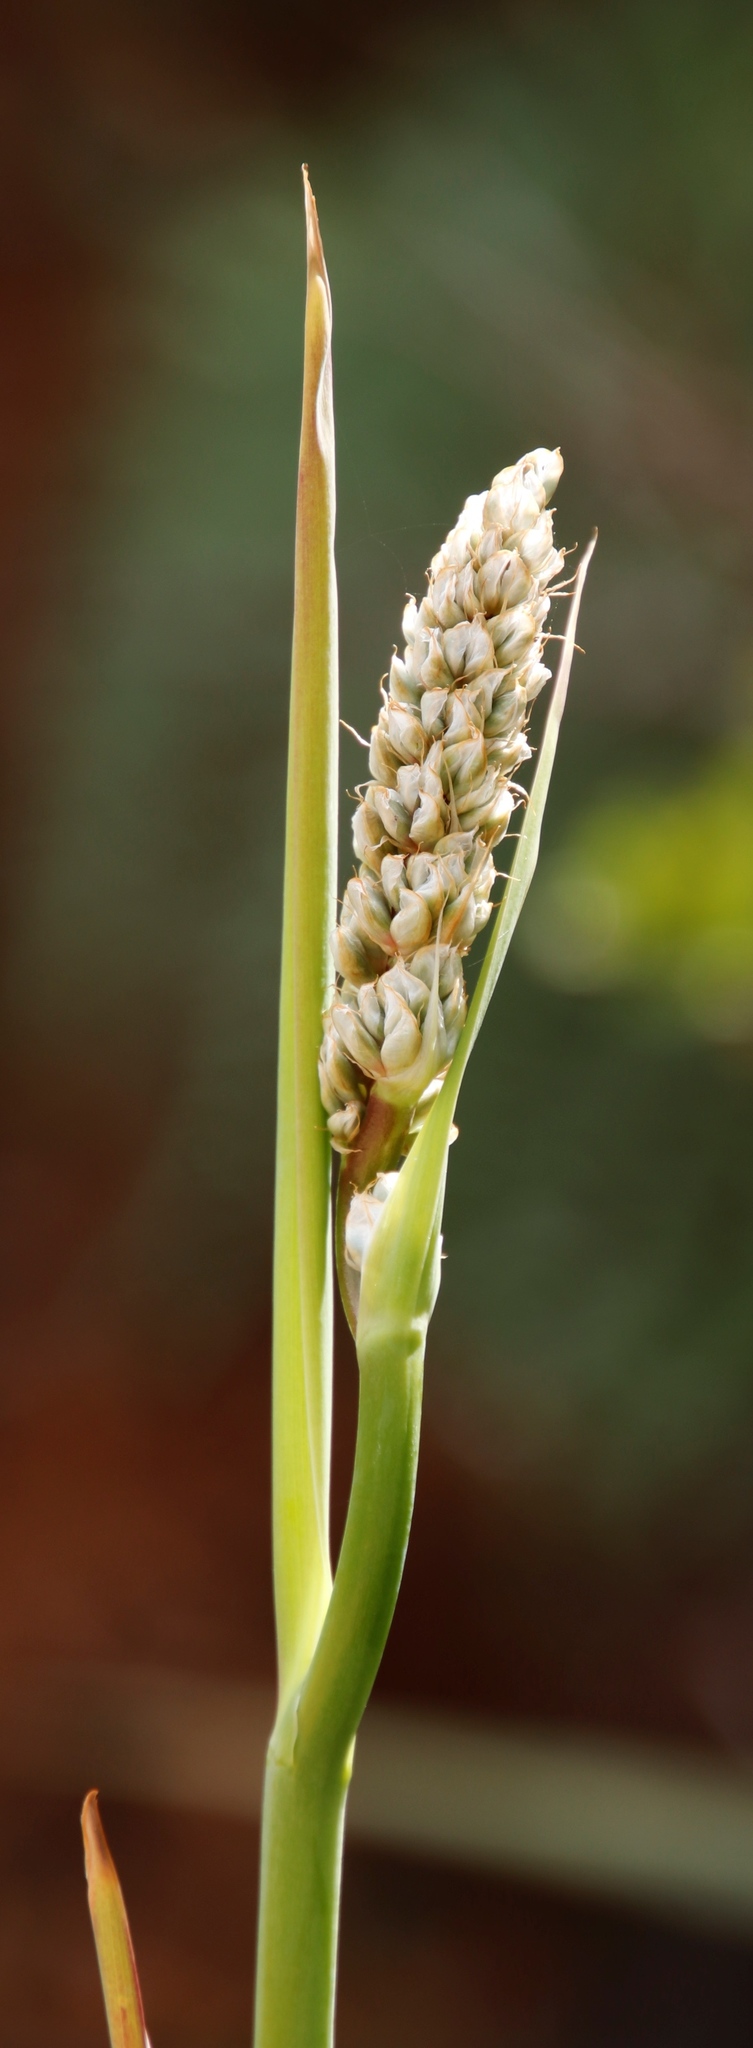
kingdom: Plantae
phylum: Tracheophyta
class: Liliopsida
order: Asparagales
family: Iridaceae
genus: Aristea
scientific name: Aristea capitata
